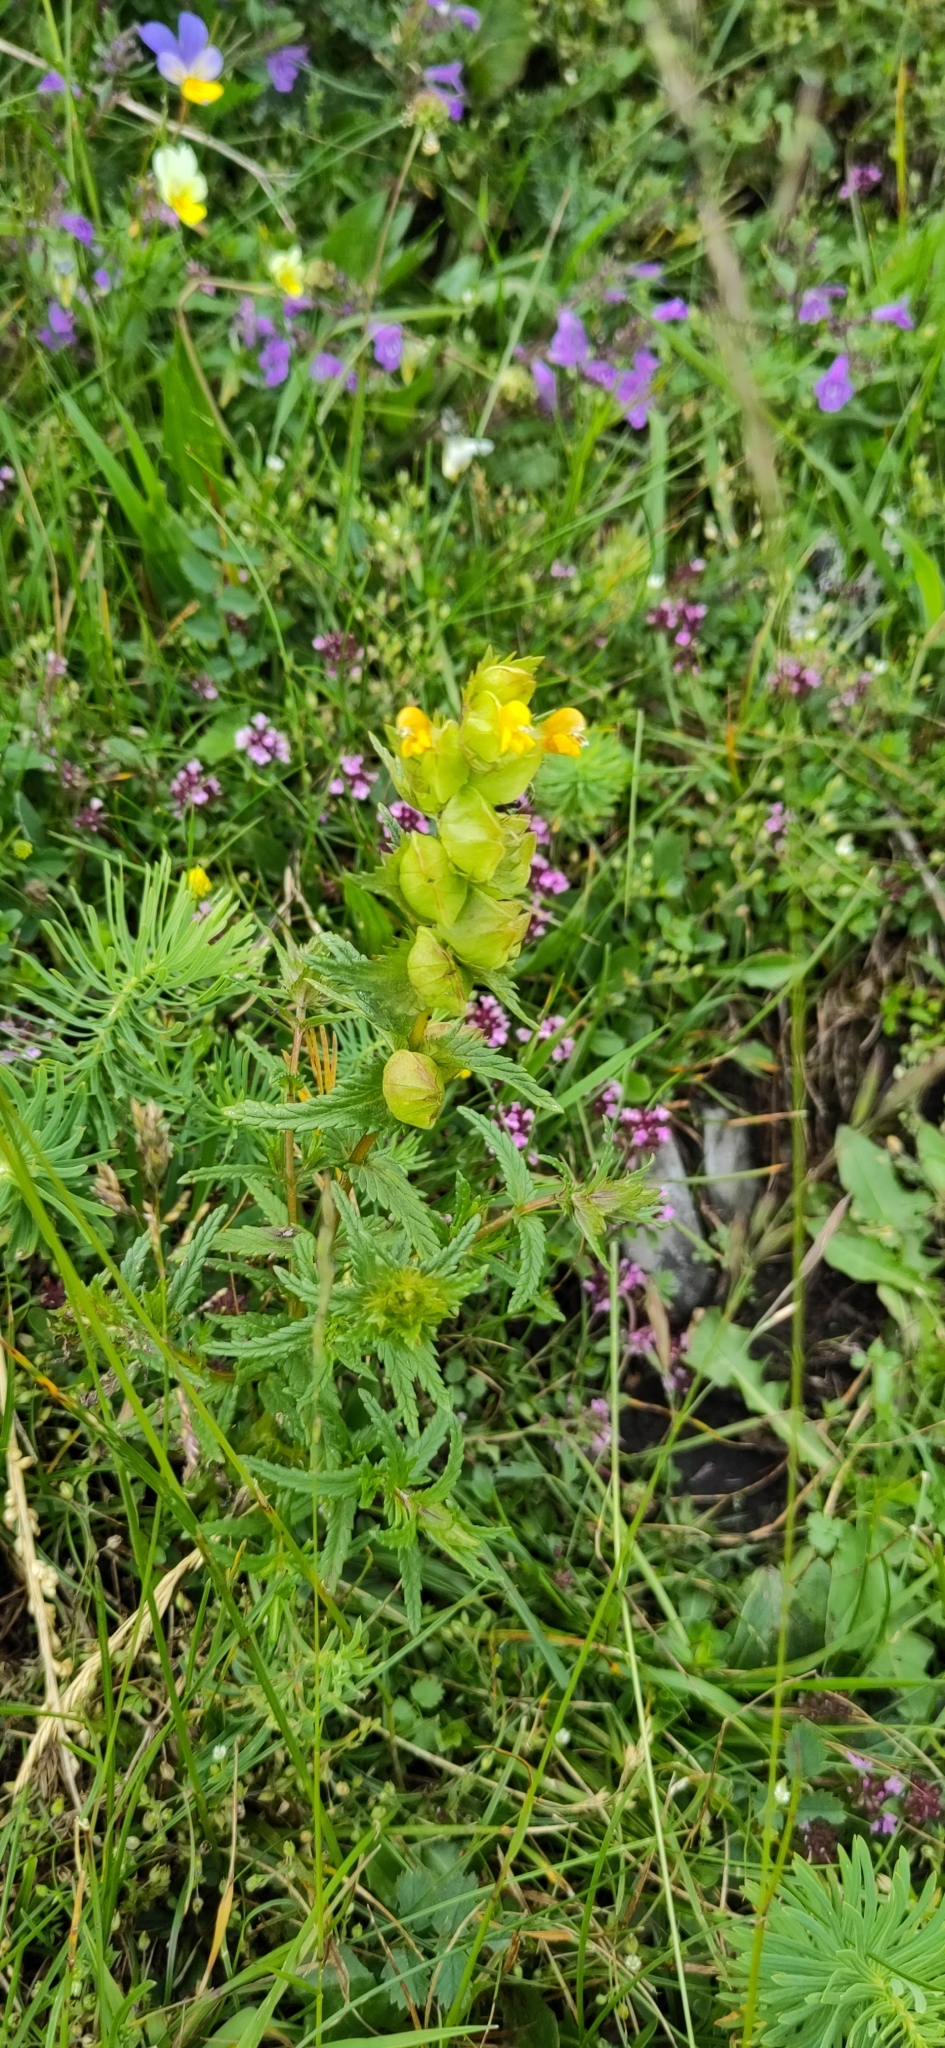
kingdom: Plantae
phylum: Tracheophyta
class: Magnoliopsida
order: Lamiales
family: Orobanchaceae
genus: Rhinanthus
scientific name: Rhinanthus minor
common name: Yellow-rattle
